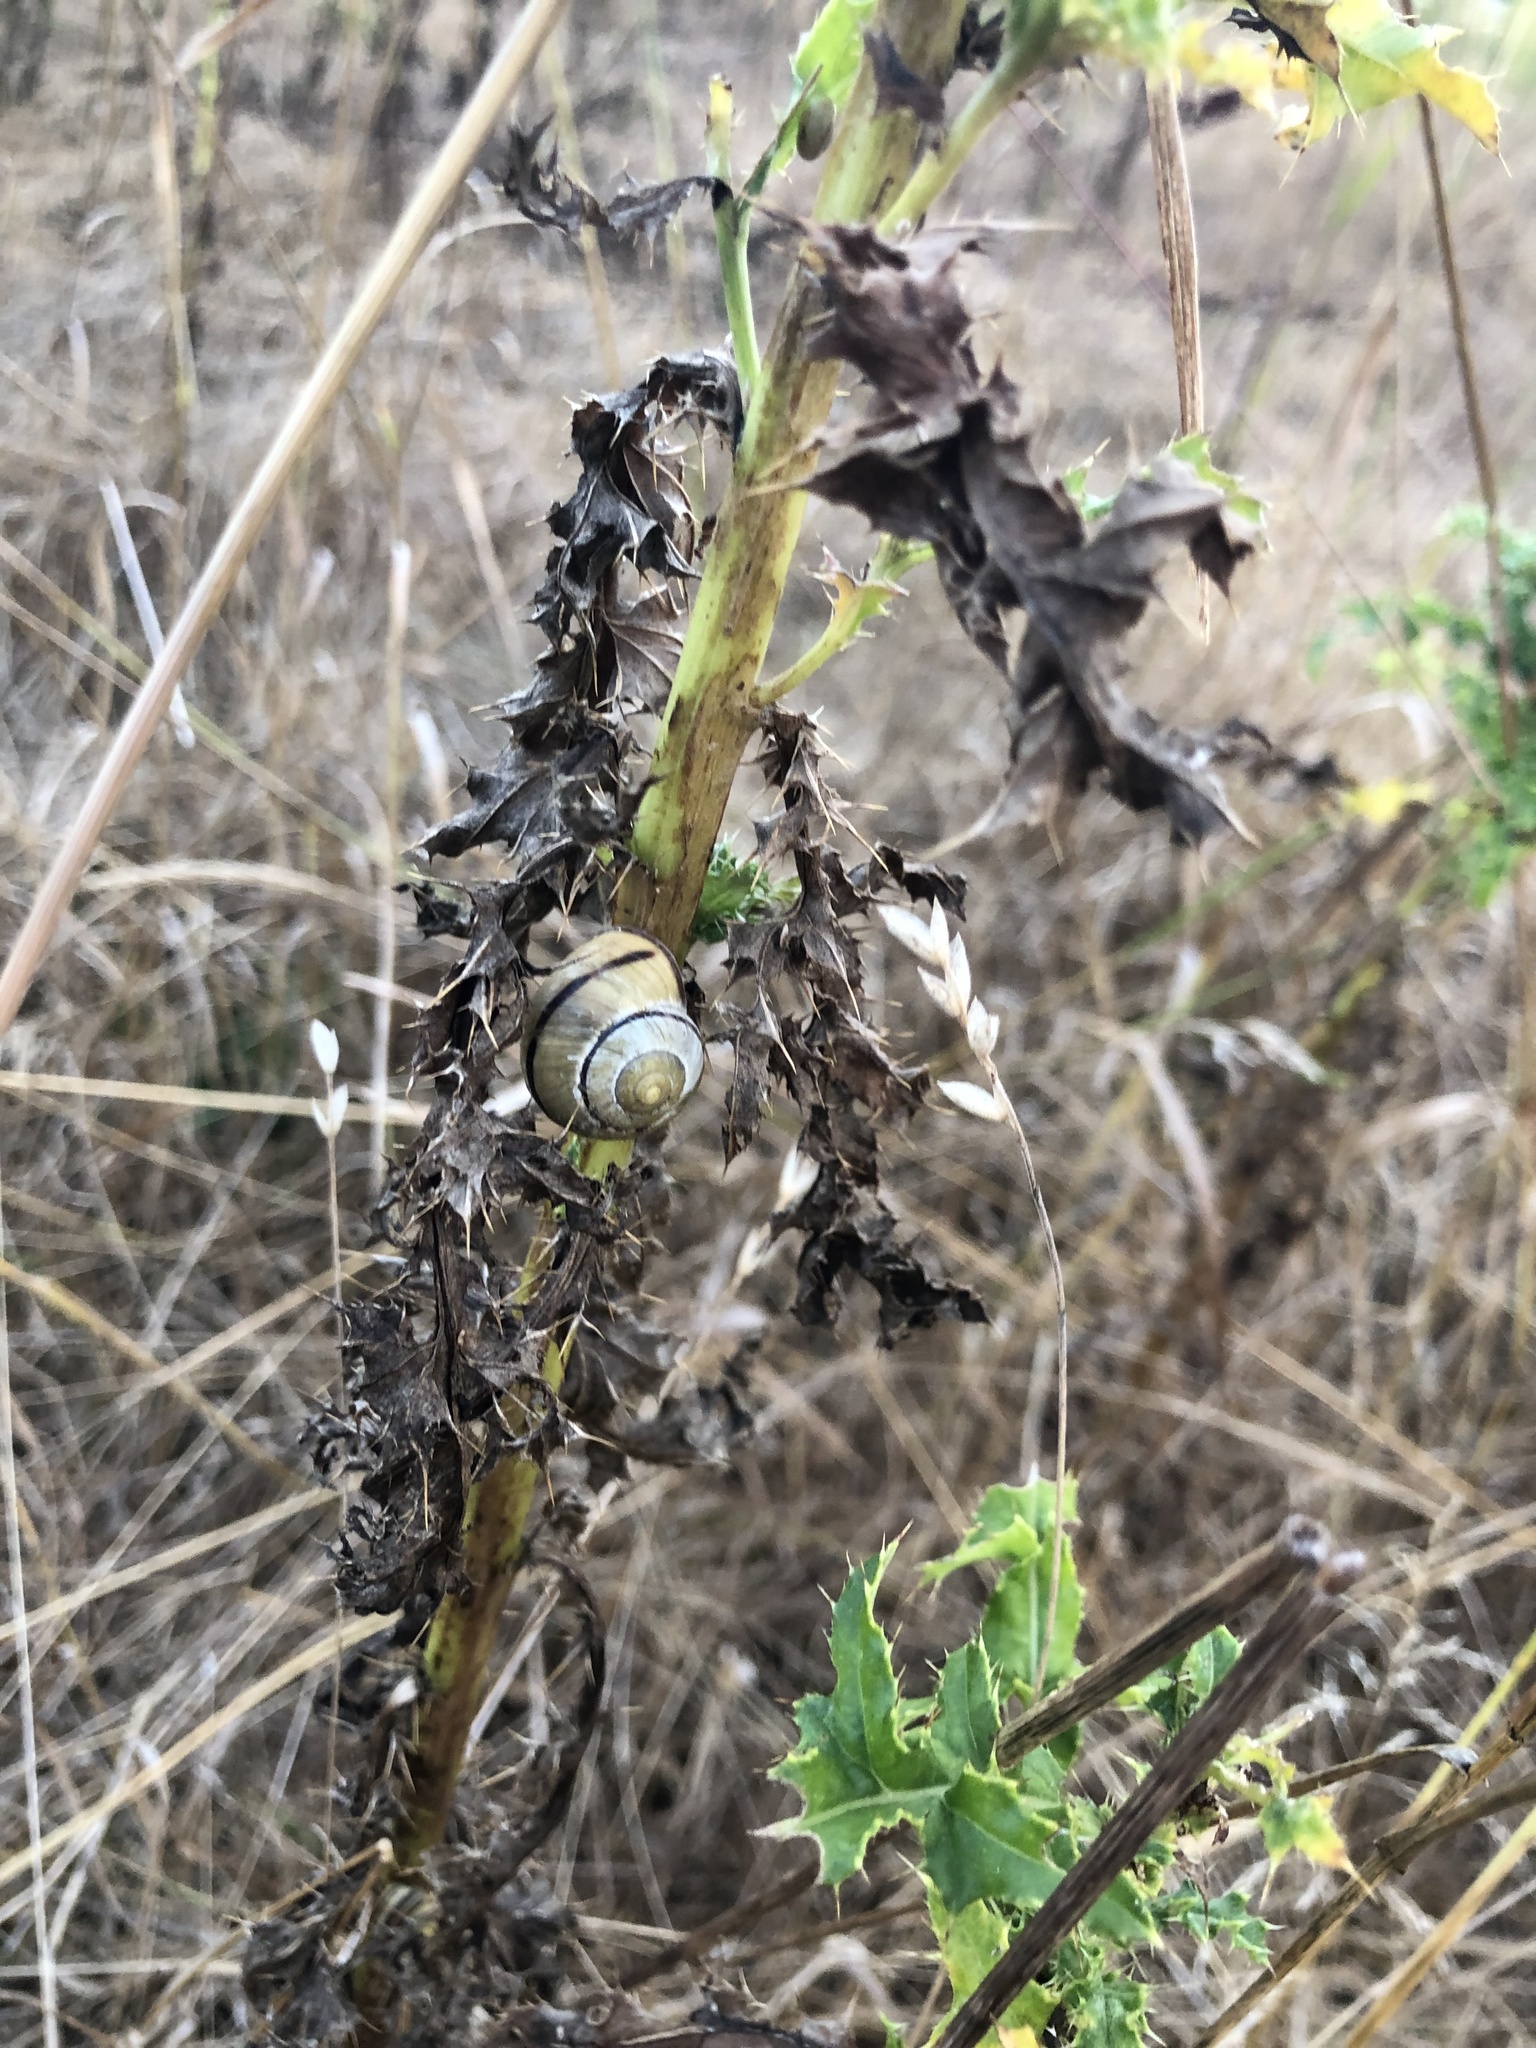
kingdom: Animalia
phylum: Mollusca
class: Gastropoda
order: Stylommatophora
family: Helicidae
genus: Cepaea
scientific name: Cepaea nemoralis
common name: Grovesnail
